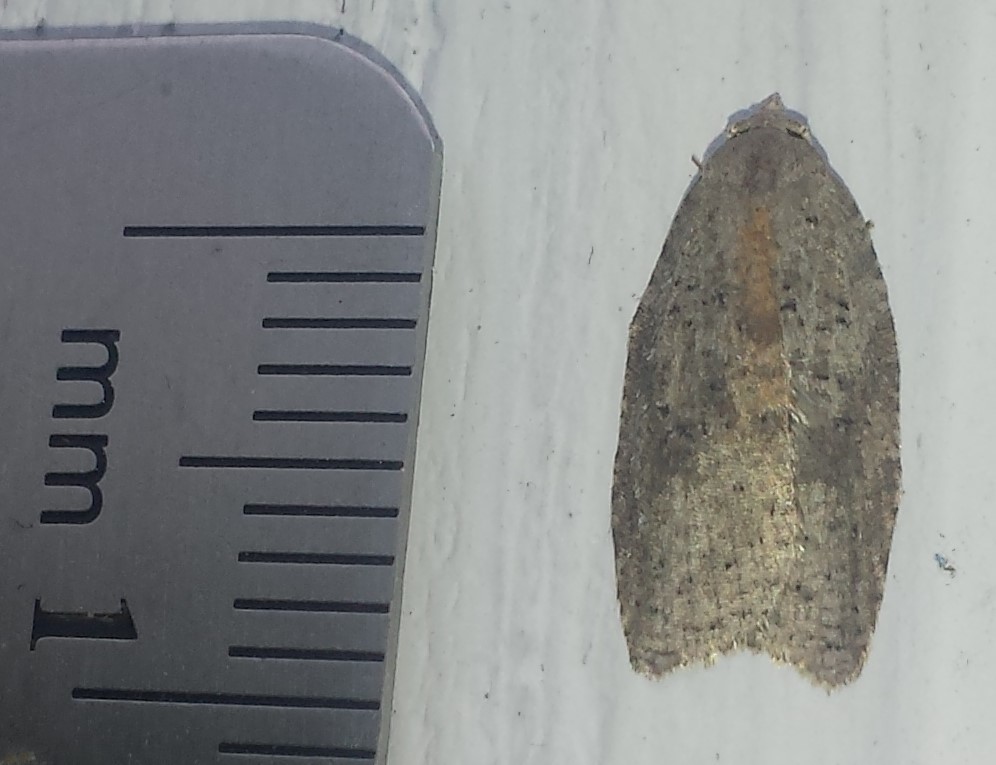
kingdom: Animalia
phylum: Arthropoda
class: Insecta
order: Lepidoptera
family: Tortricidae
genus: Amorbia
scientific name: Amorbia humerosana
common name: White-lined leafroller moth
